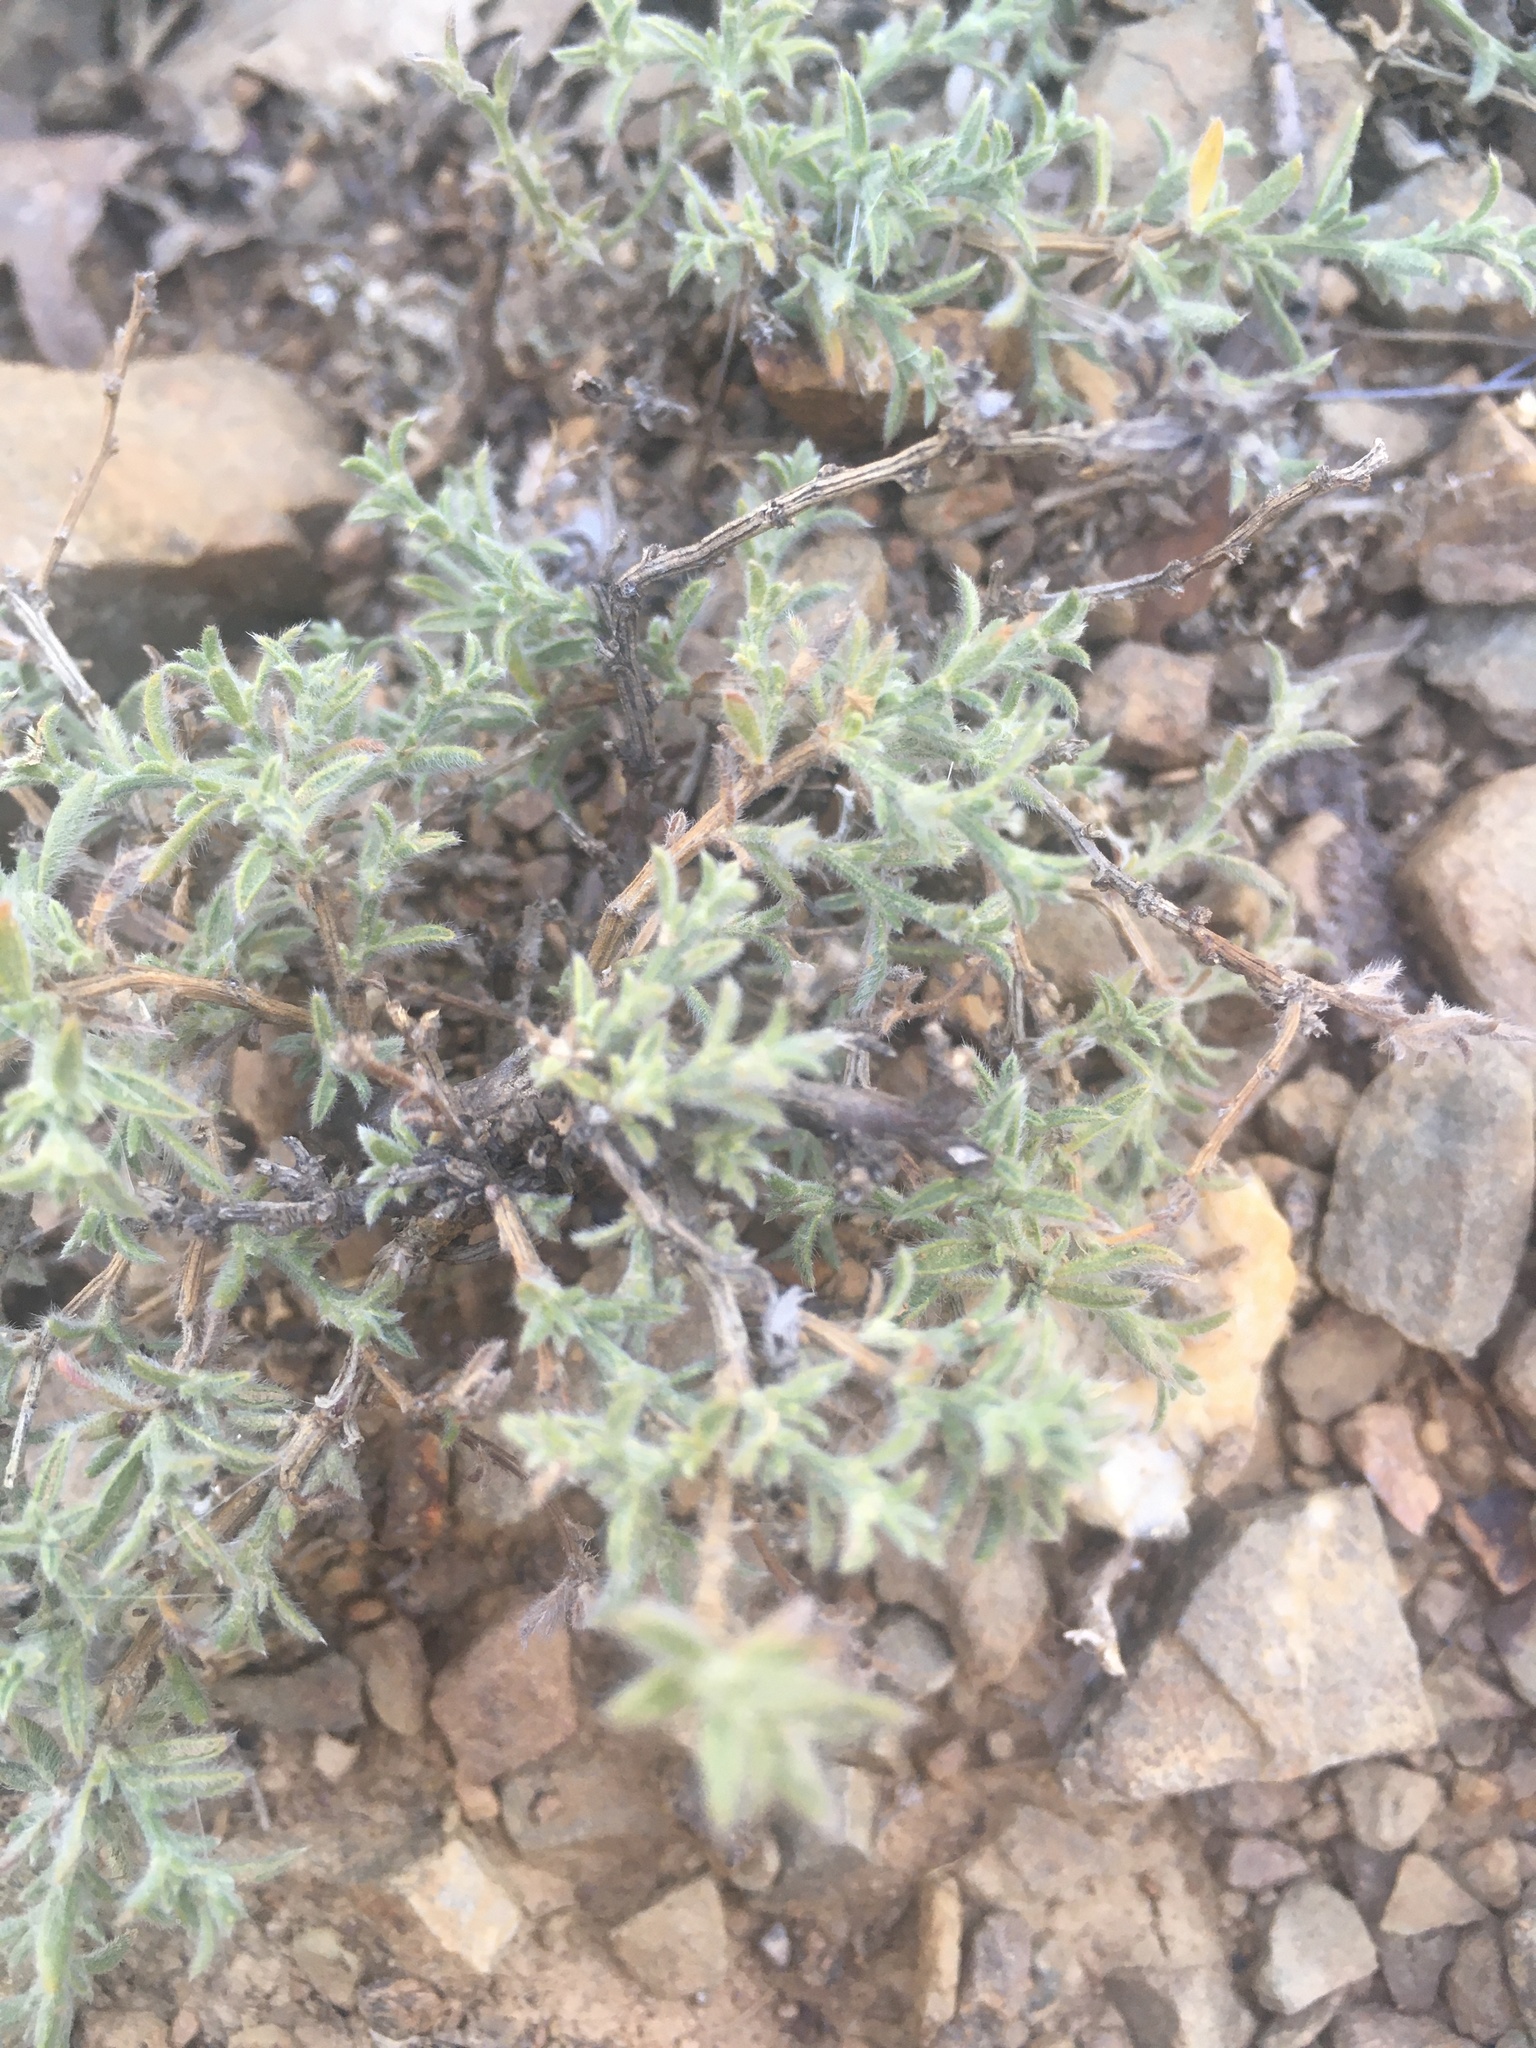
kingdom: Plantae
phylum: Tracheophyta
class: Magnoliopsida
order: Fabales
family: Fabaceae
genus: Genista
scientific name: Genista albida
